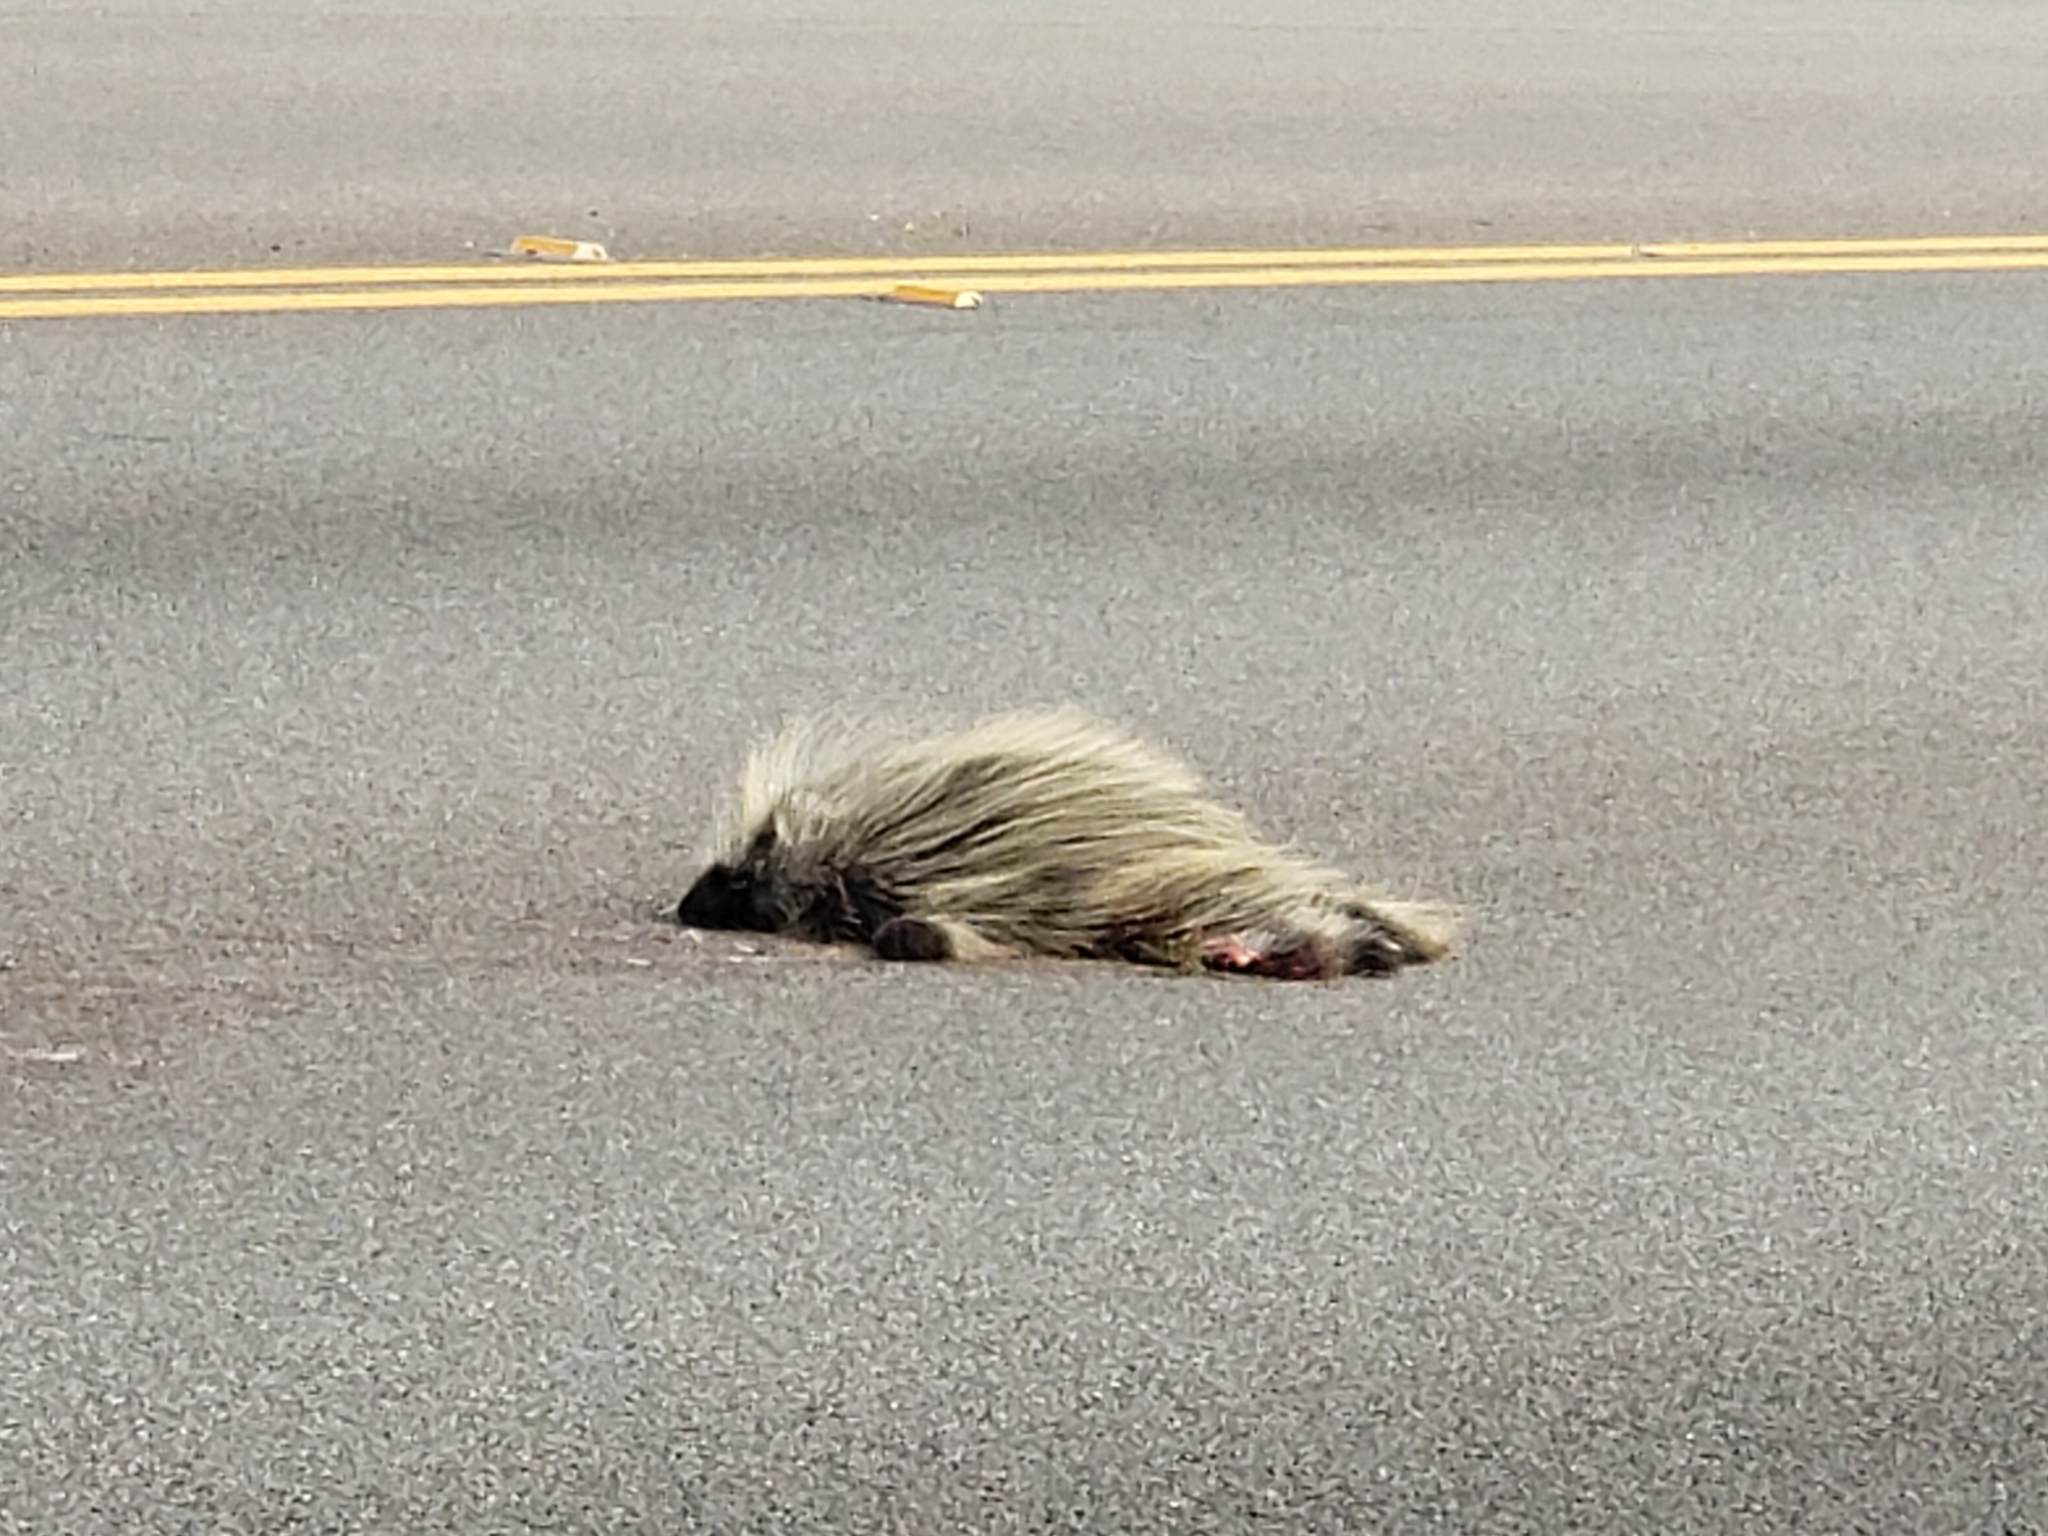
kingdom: Animalia
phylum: Chordata
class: Mammalia
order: Rodentia
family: Erethizontidae
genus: Erethizon
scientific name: Erethizon dorsatus
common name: North american porcupine
